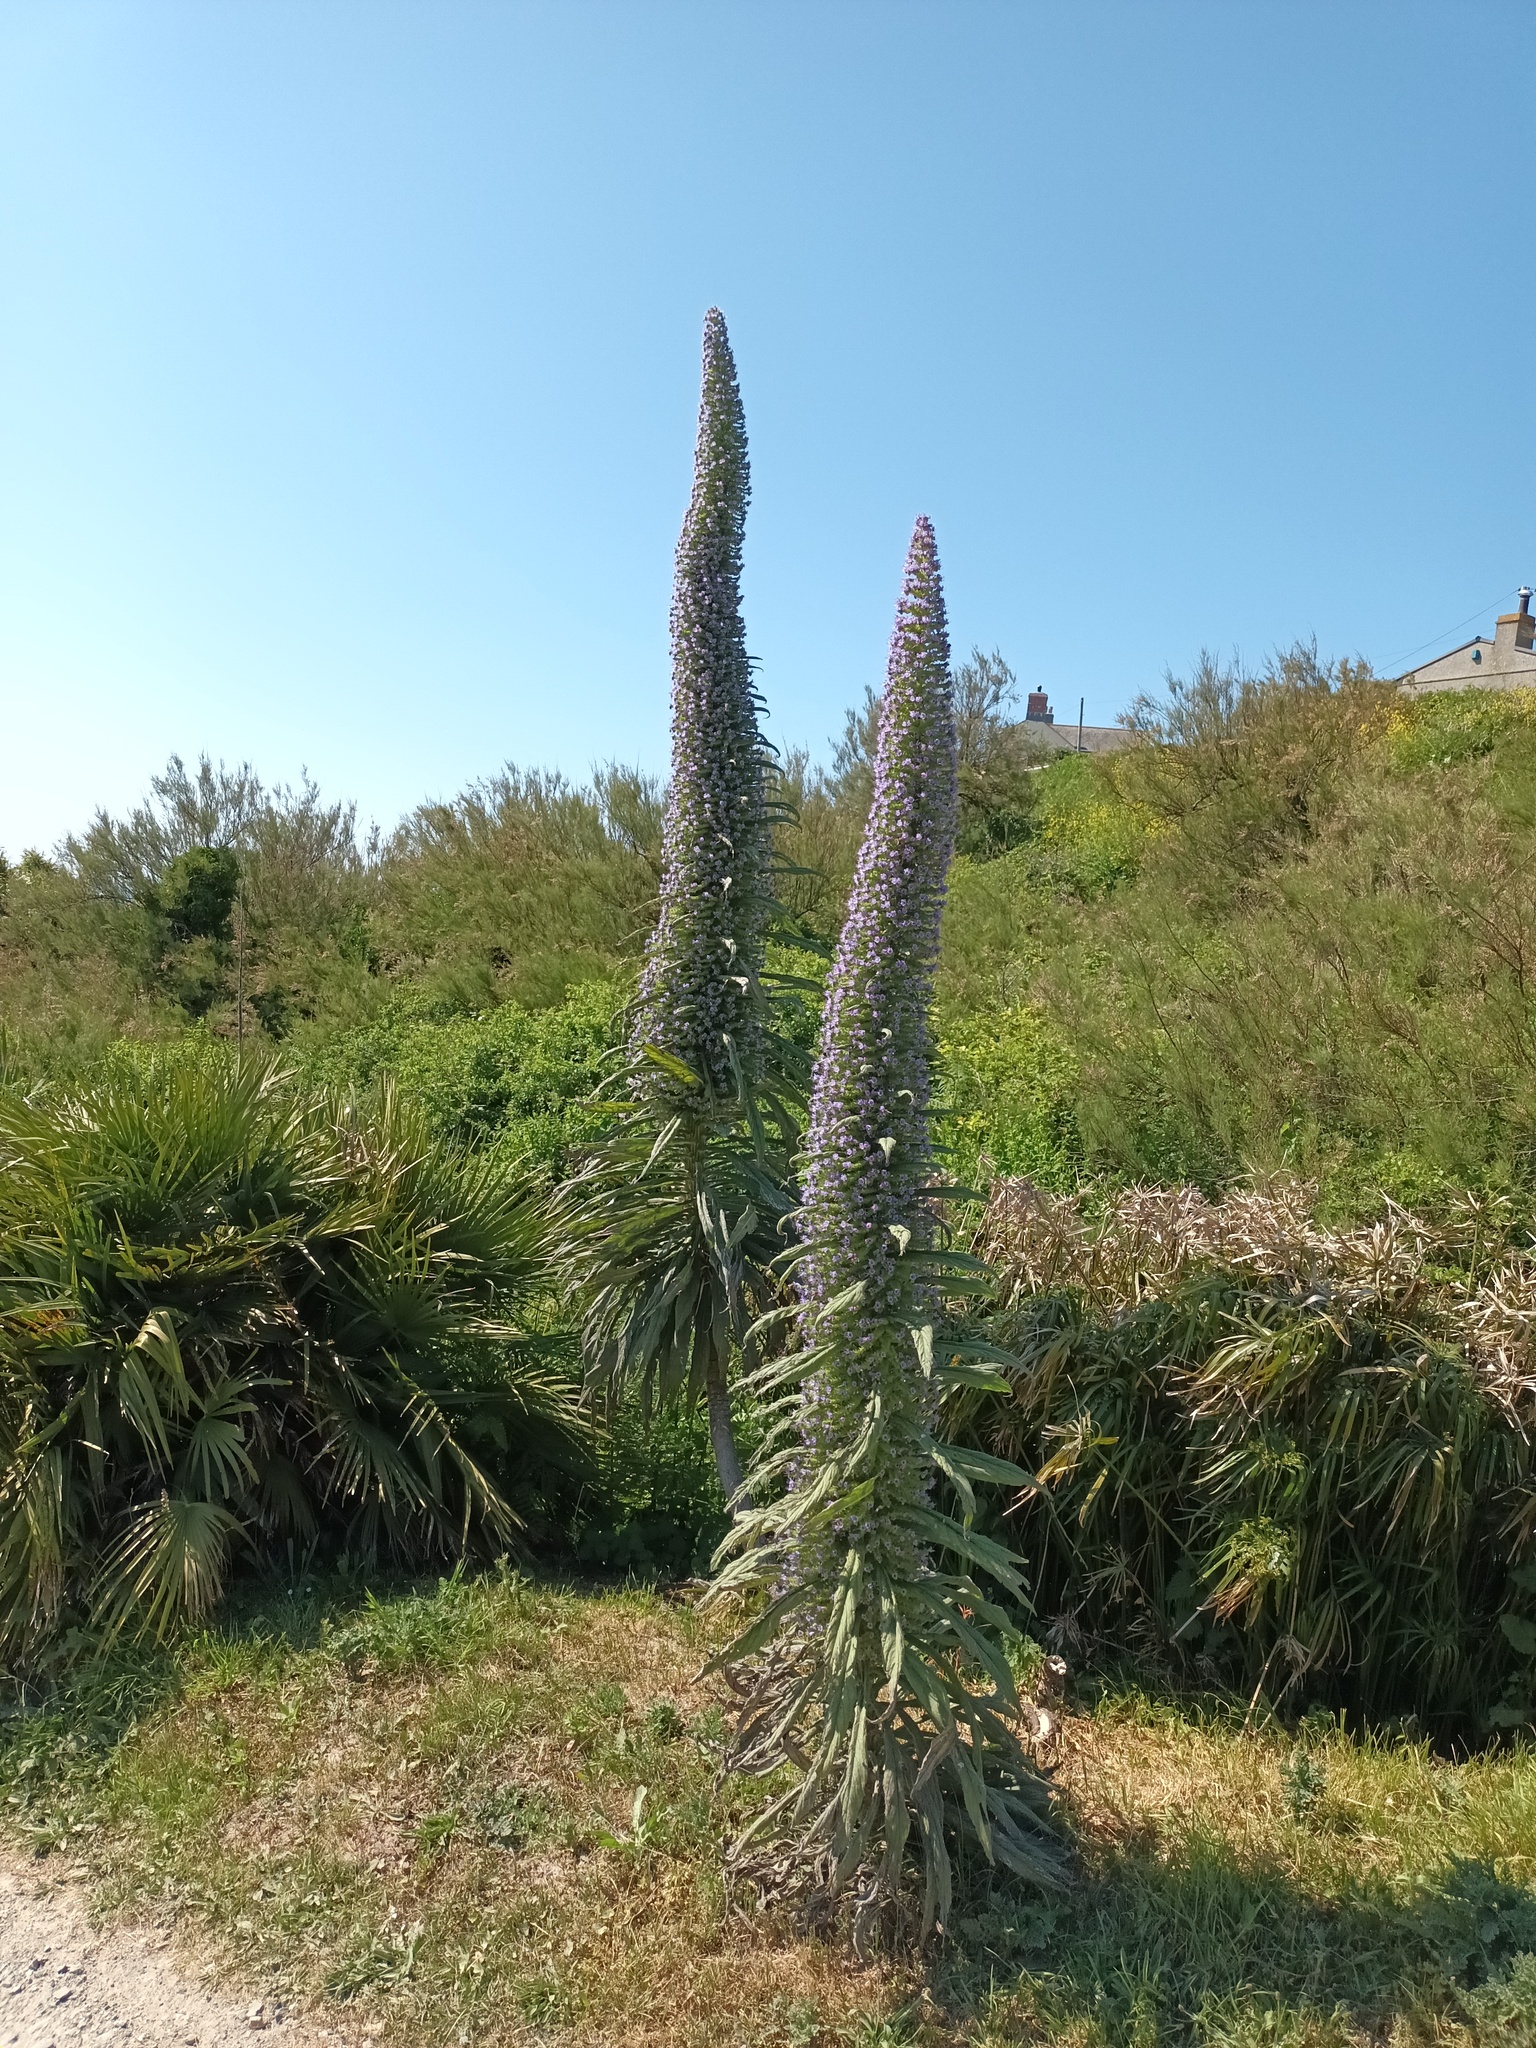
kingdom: Plantae
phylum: Tracheophyta
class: Magnoliopsida
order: Boraginales
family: Boraginaceae
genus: Echium
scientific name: Echium pininana
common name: Giant viper's-bugloss
